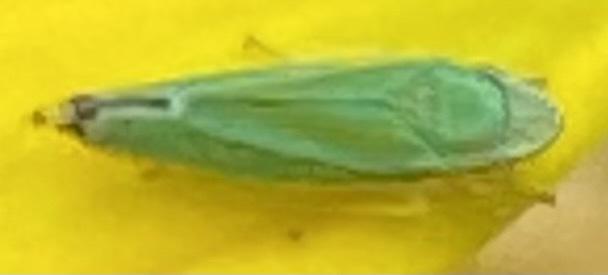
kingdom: Animalia
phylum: Arthropoda
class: Insecta
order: Hemiptera
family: Cicadellidae
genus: Graphocephala
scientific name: Graphocephala versuta
